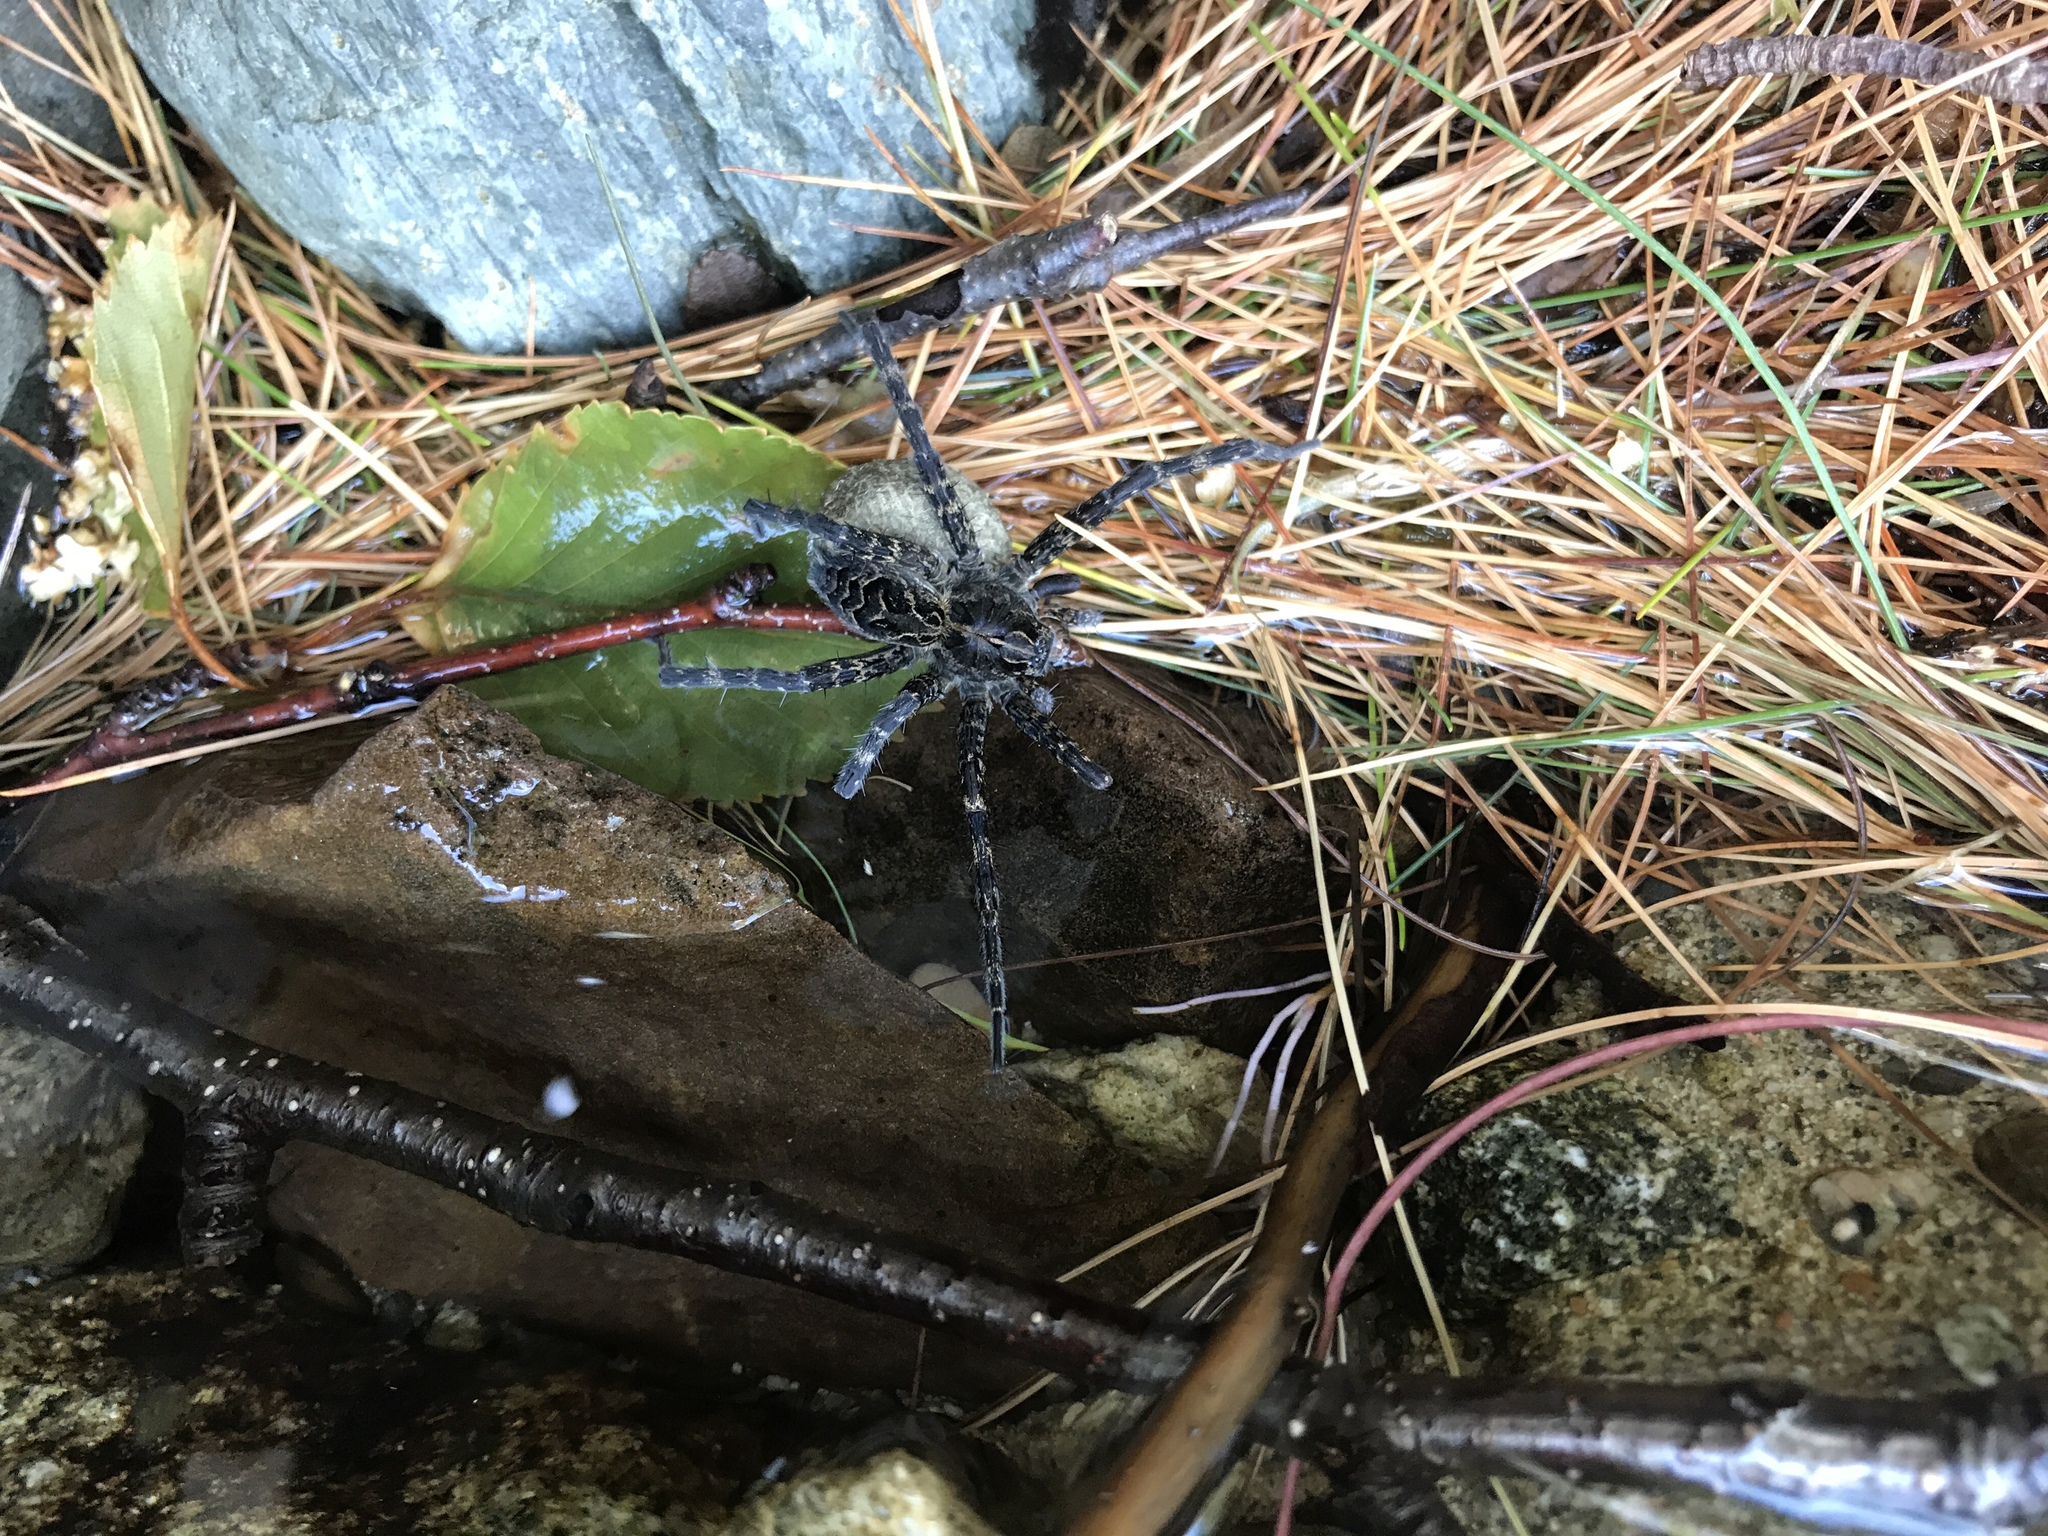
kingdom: Animalia
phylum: Arthropoda
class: Arachnida
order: Araneae
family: Pisauridae
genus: Dolomedes
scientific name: Dolomedes scriptus
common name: Striped fishing spider
